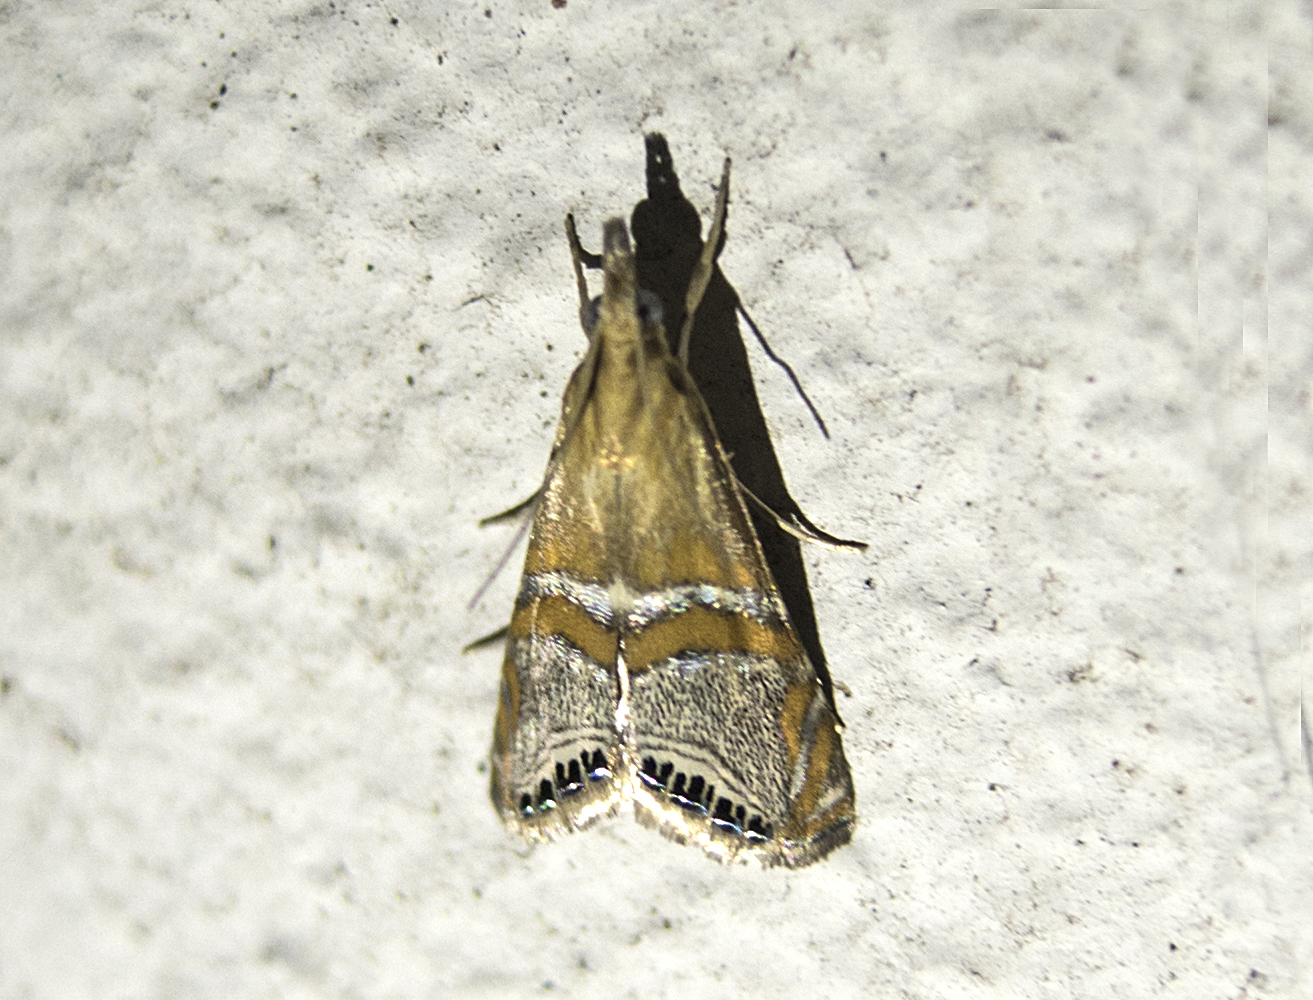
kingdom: Animalia
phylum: Arthropoda
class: Insecta
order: Lepidoptera
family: Crambidae
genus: Euchromius
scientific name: Euchromius bella
